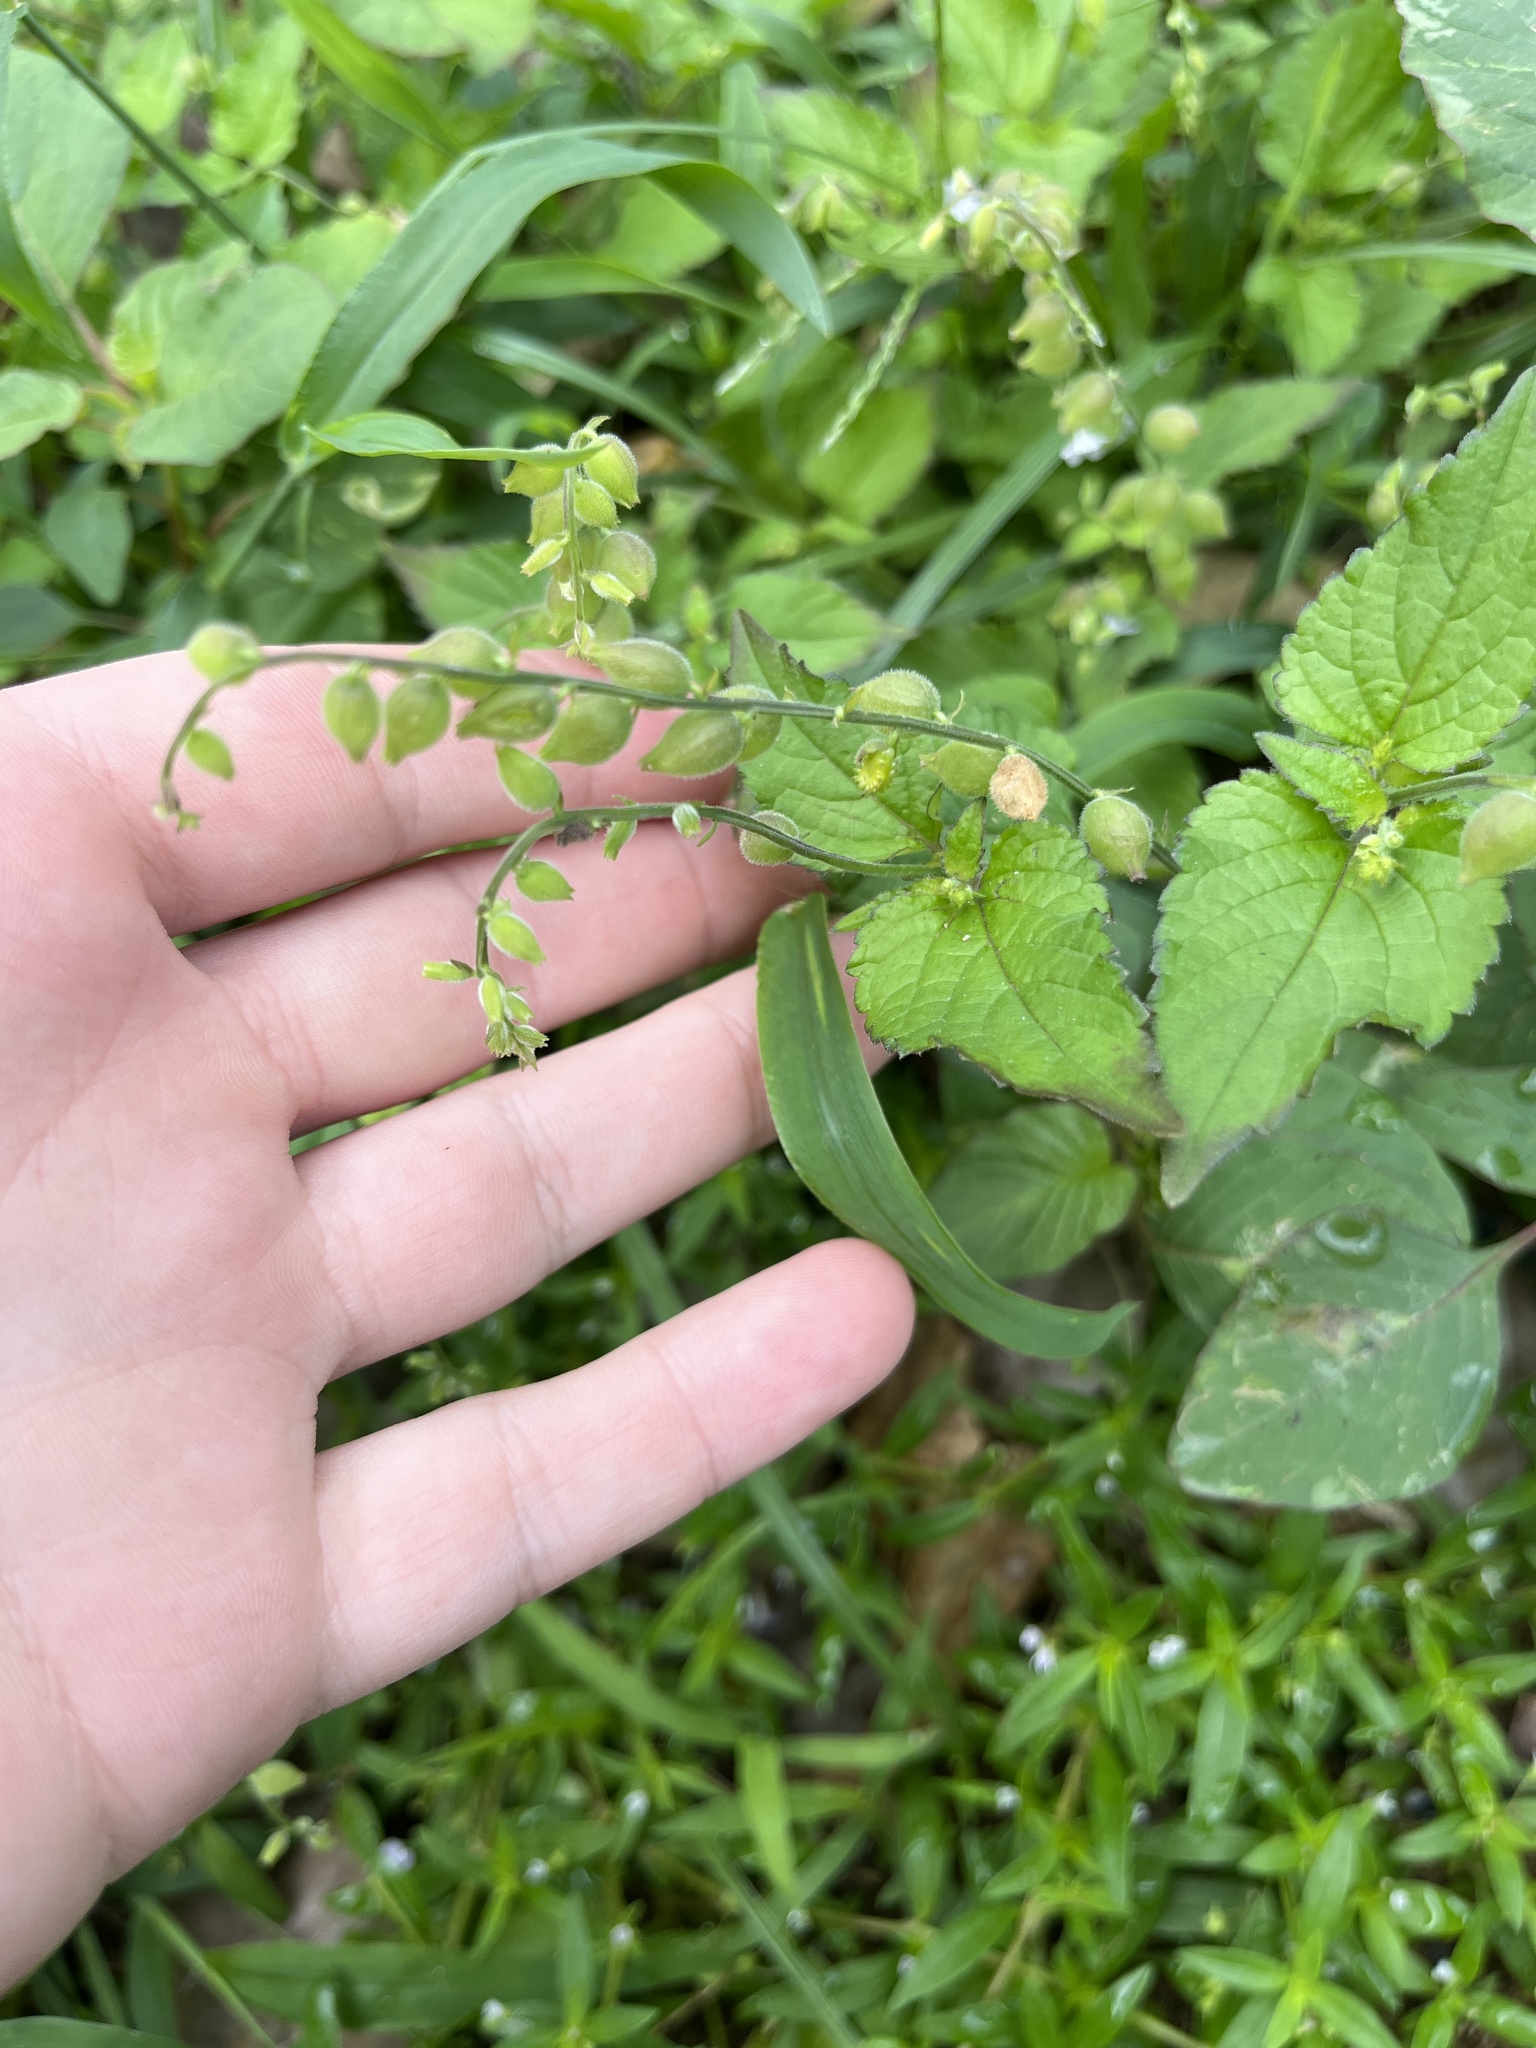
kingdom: Plantae
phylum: Tracheophyta
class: Magnoliopsida
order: Lamiales
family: Verbenaceae
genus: Priva
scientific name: Priva lappulacea
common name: Fasten-'pon-coat
